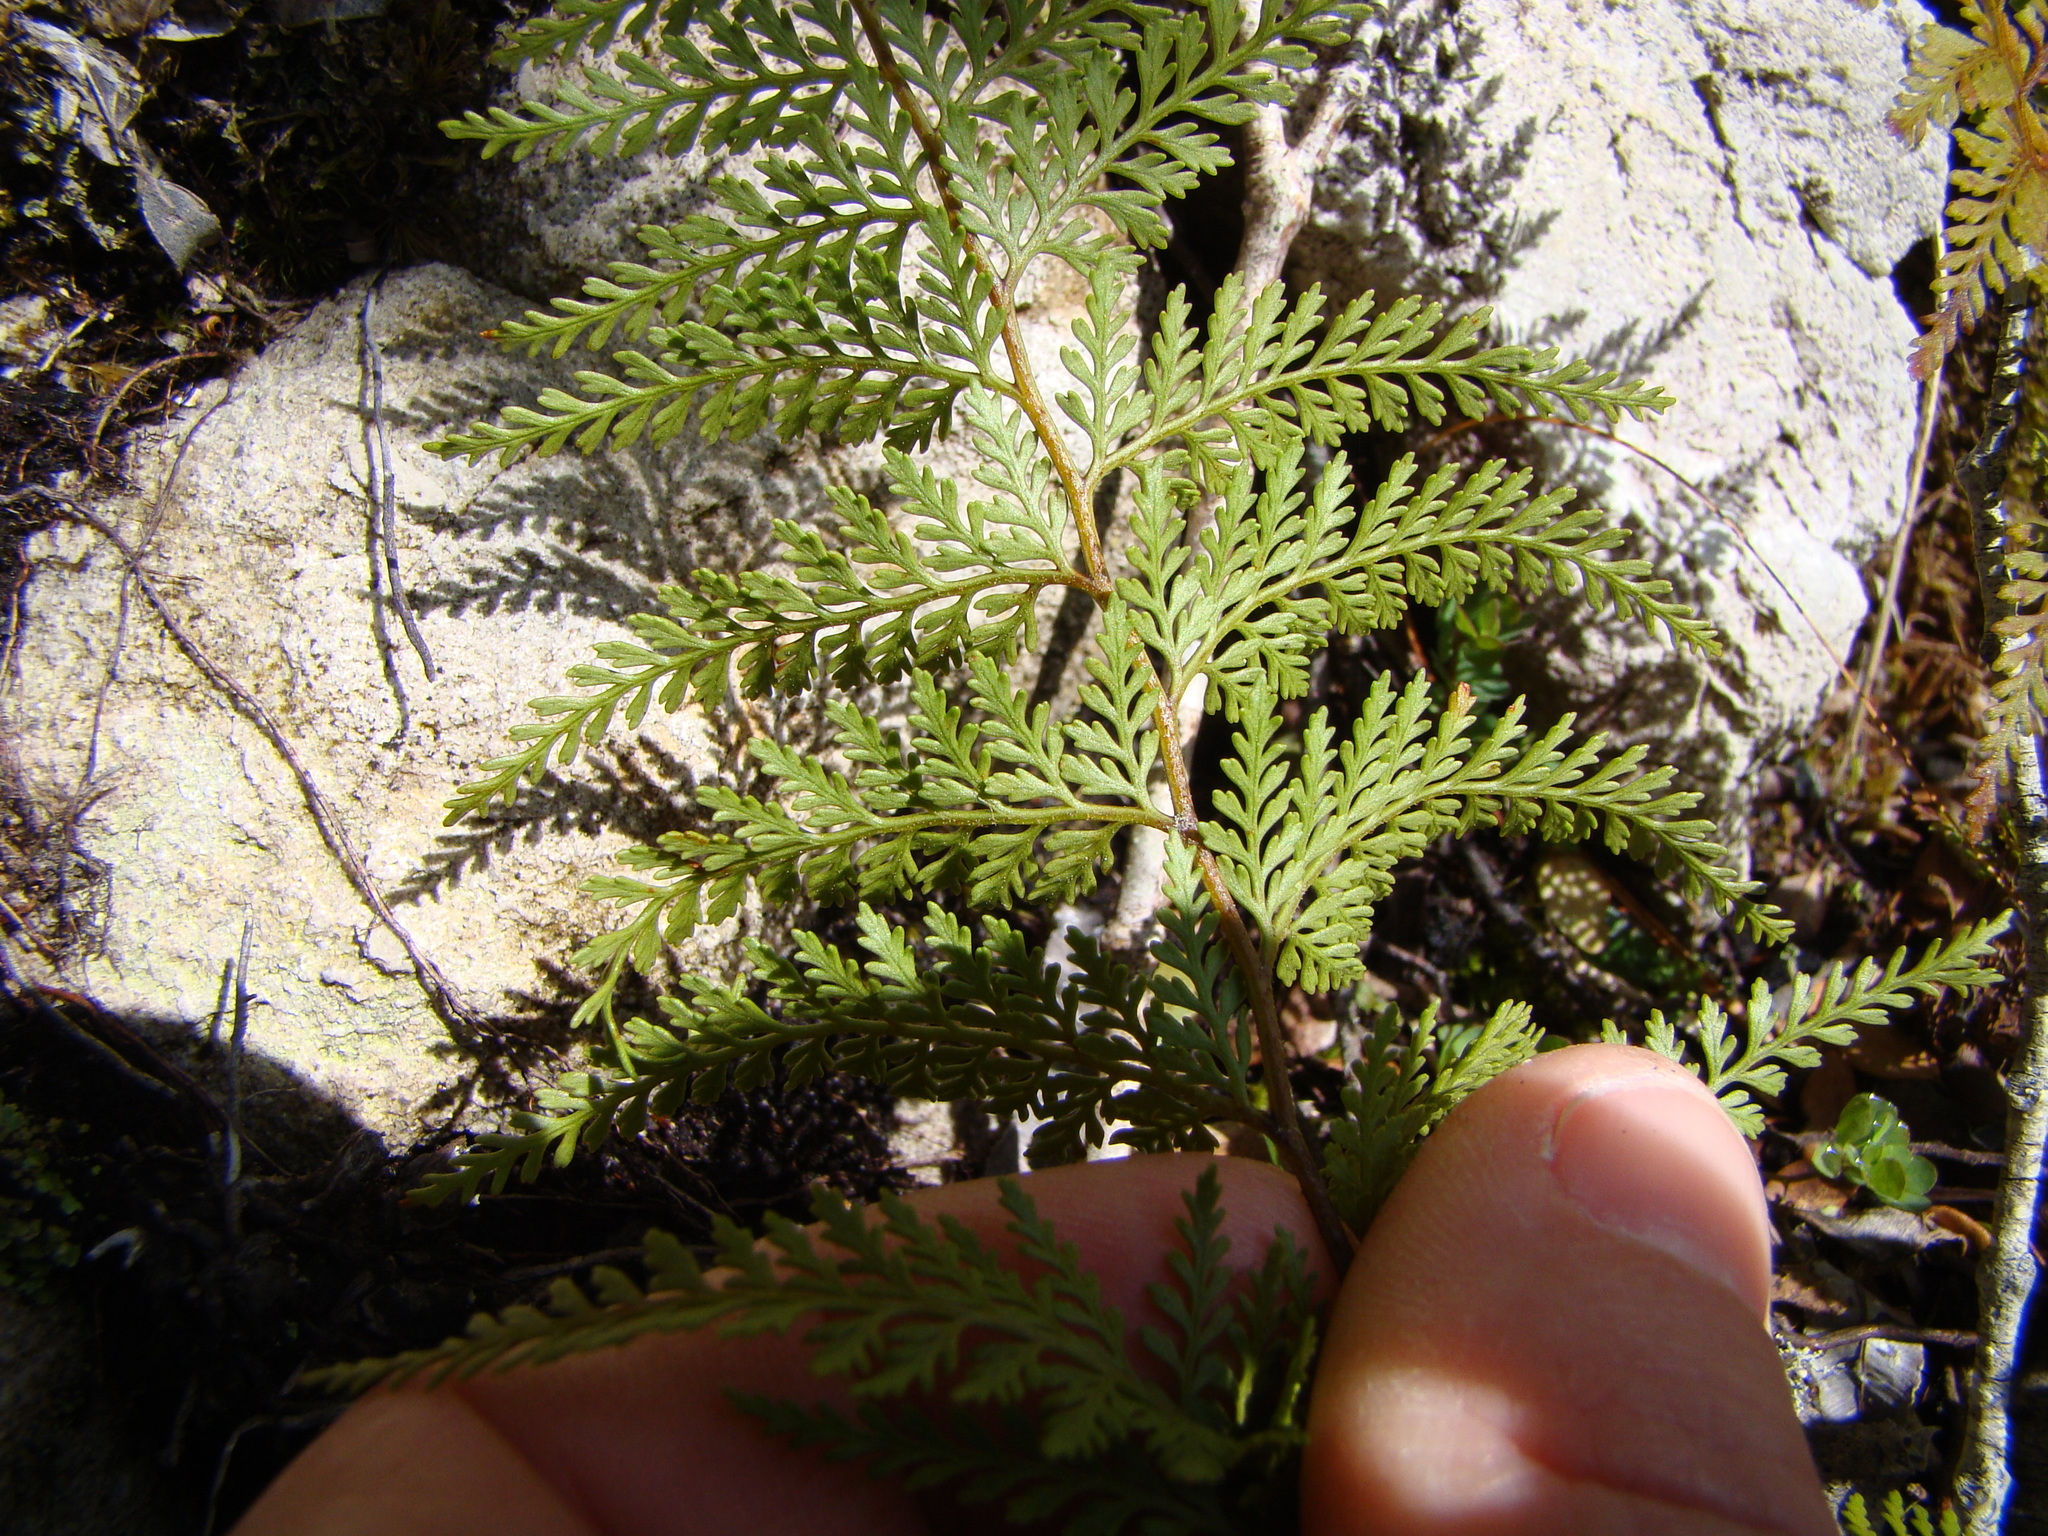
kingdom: Plantae
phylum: Tracheophyta
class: Polypodiopsida
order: Polypodiales
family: Dennstaedtiaceae
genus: Paesia
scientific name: Paesia scaberula
